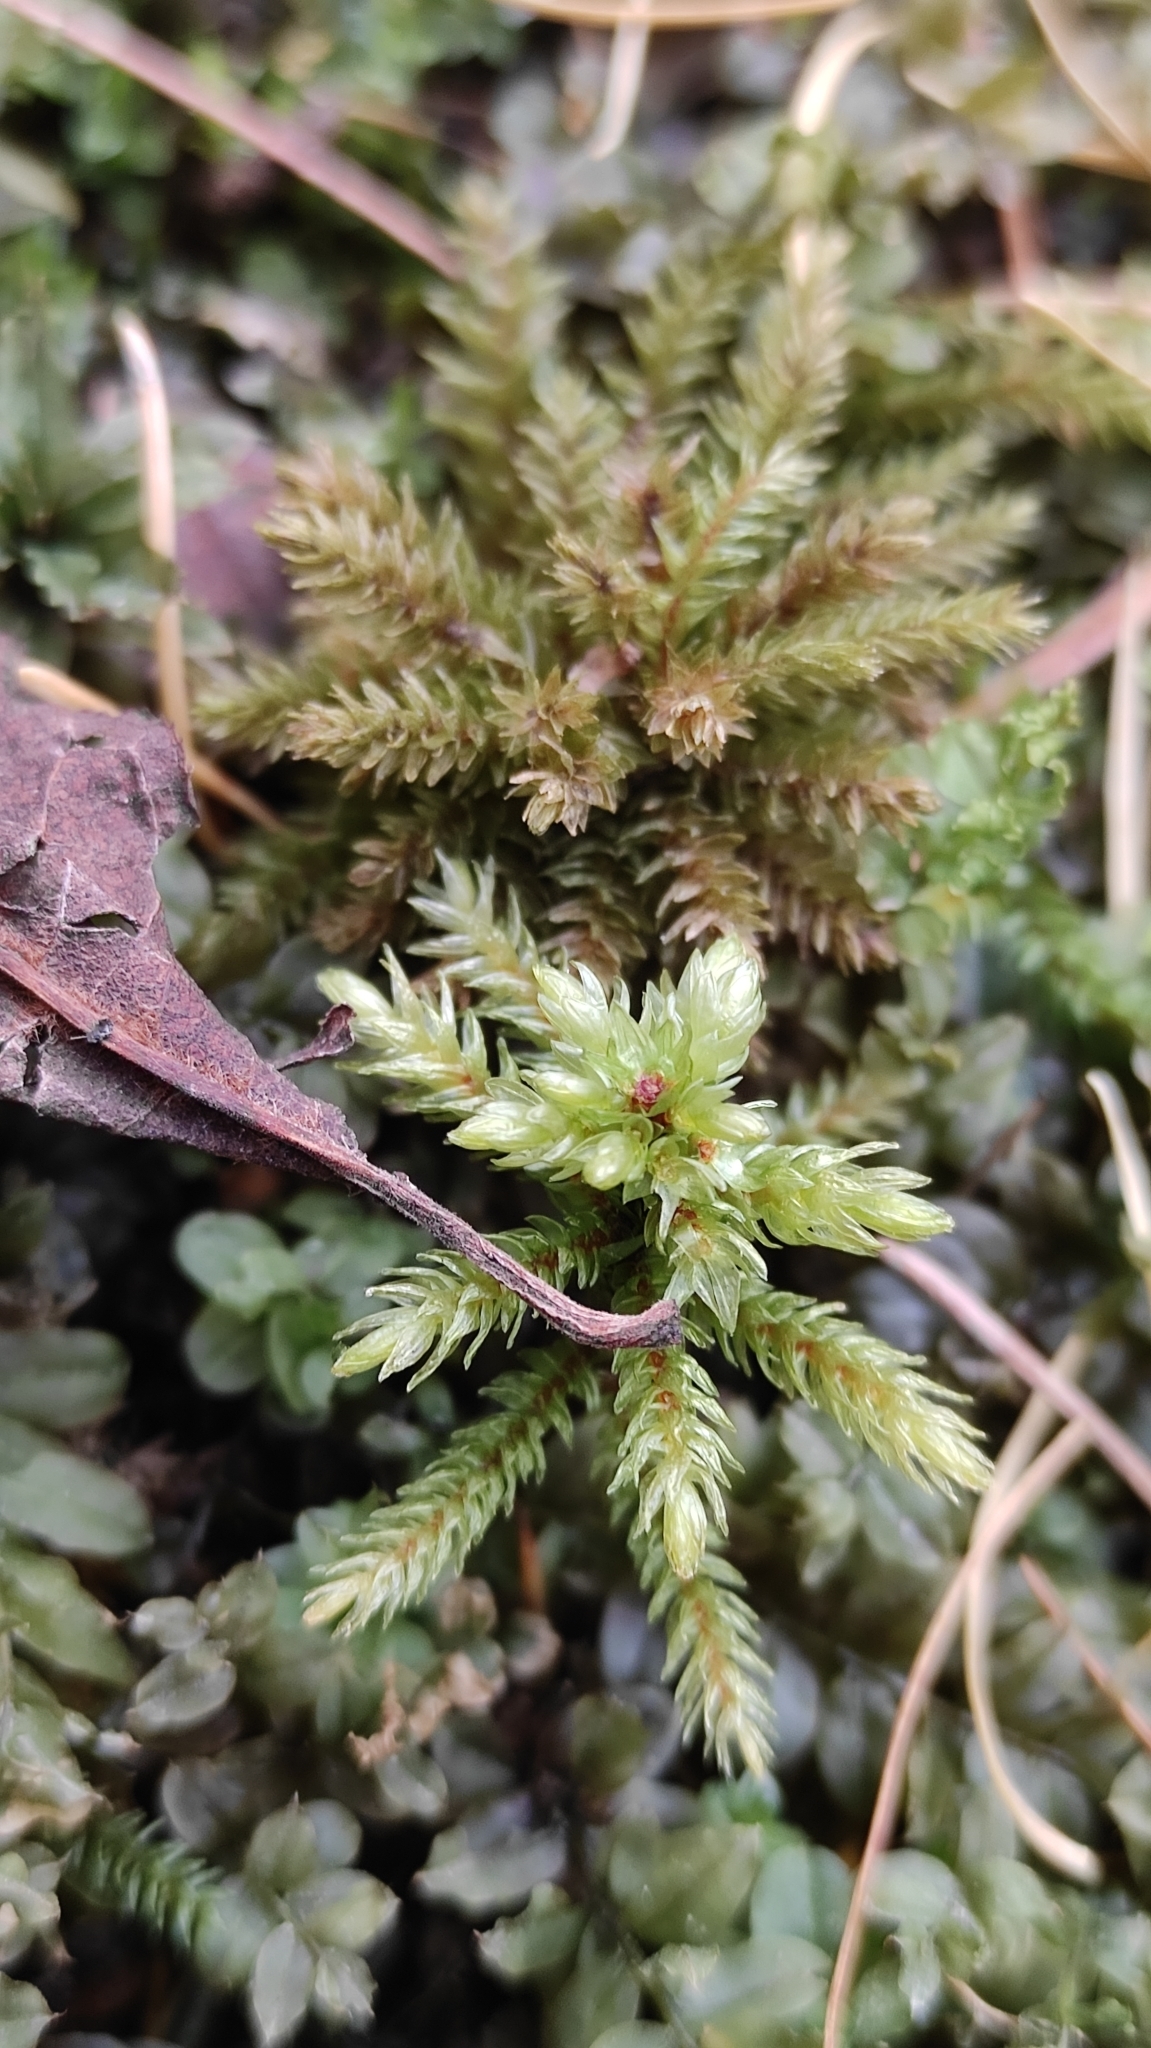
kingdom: Plantae
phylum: Bryophyta
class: Bryopsida
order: Hypnales
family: Climaciaceae
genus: Climacium
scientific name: Climacium dendroides
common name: Northern tree moss
